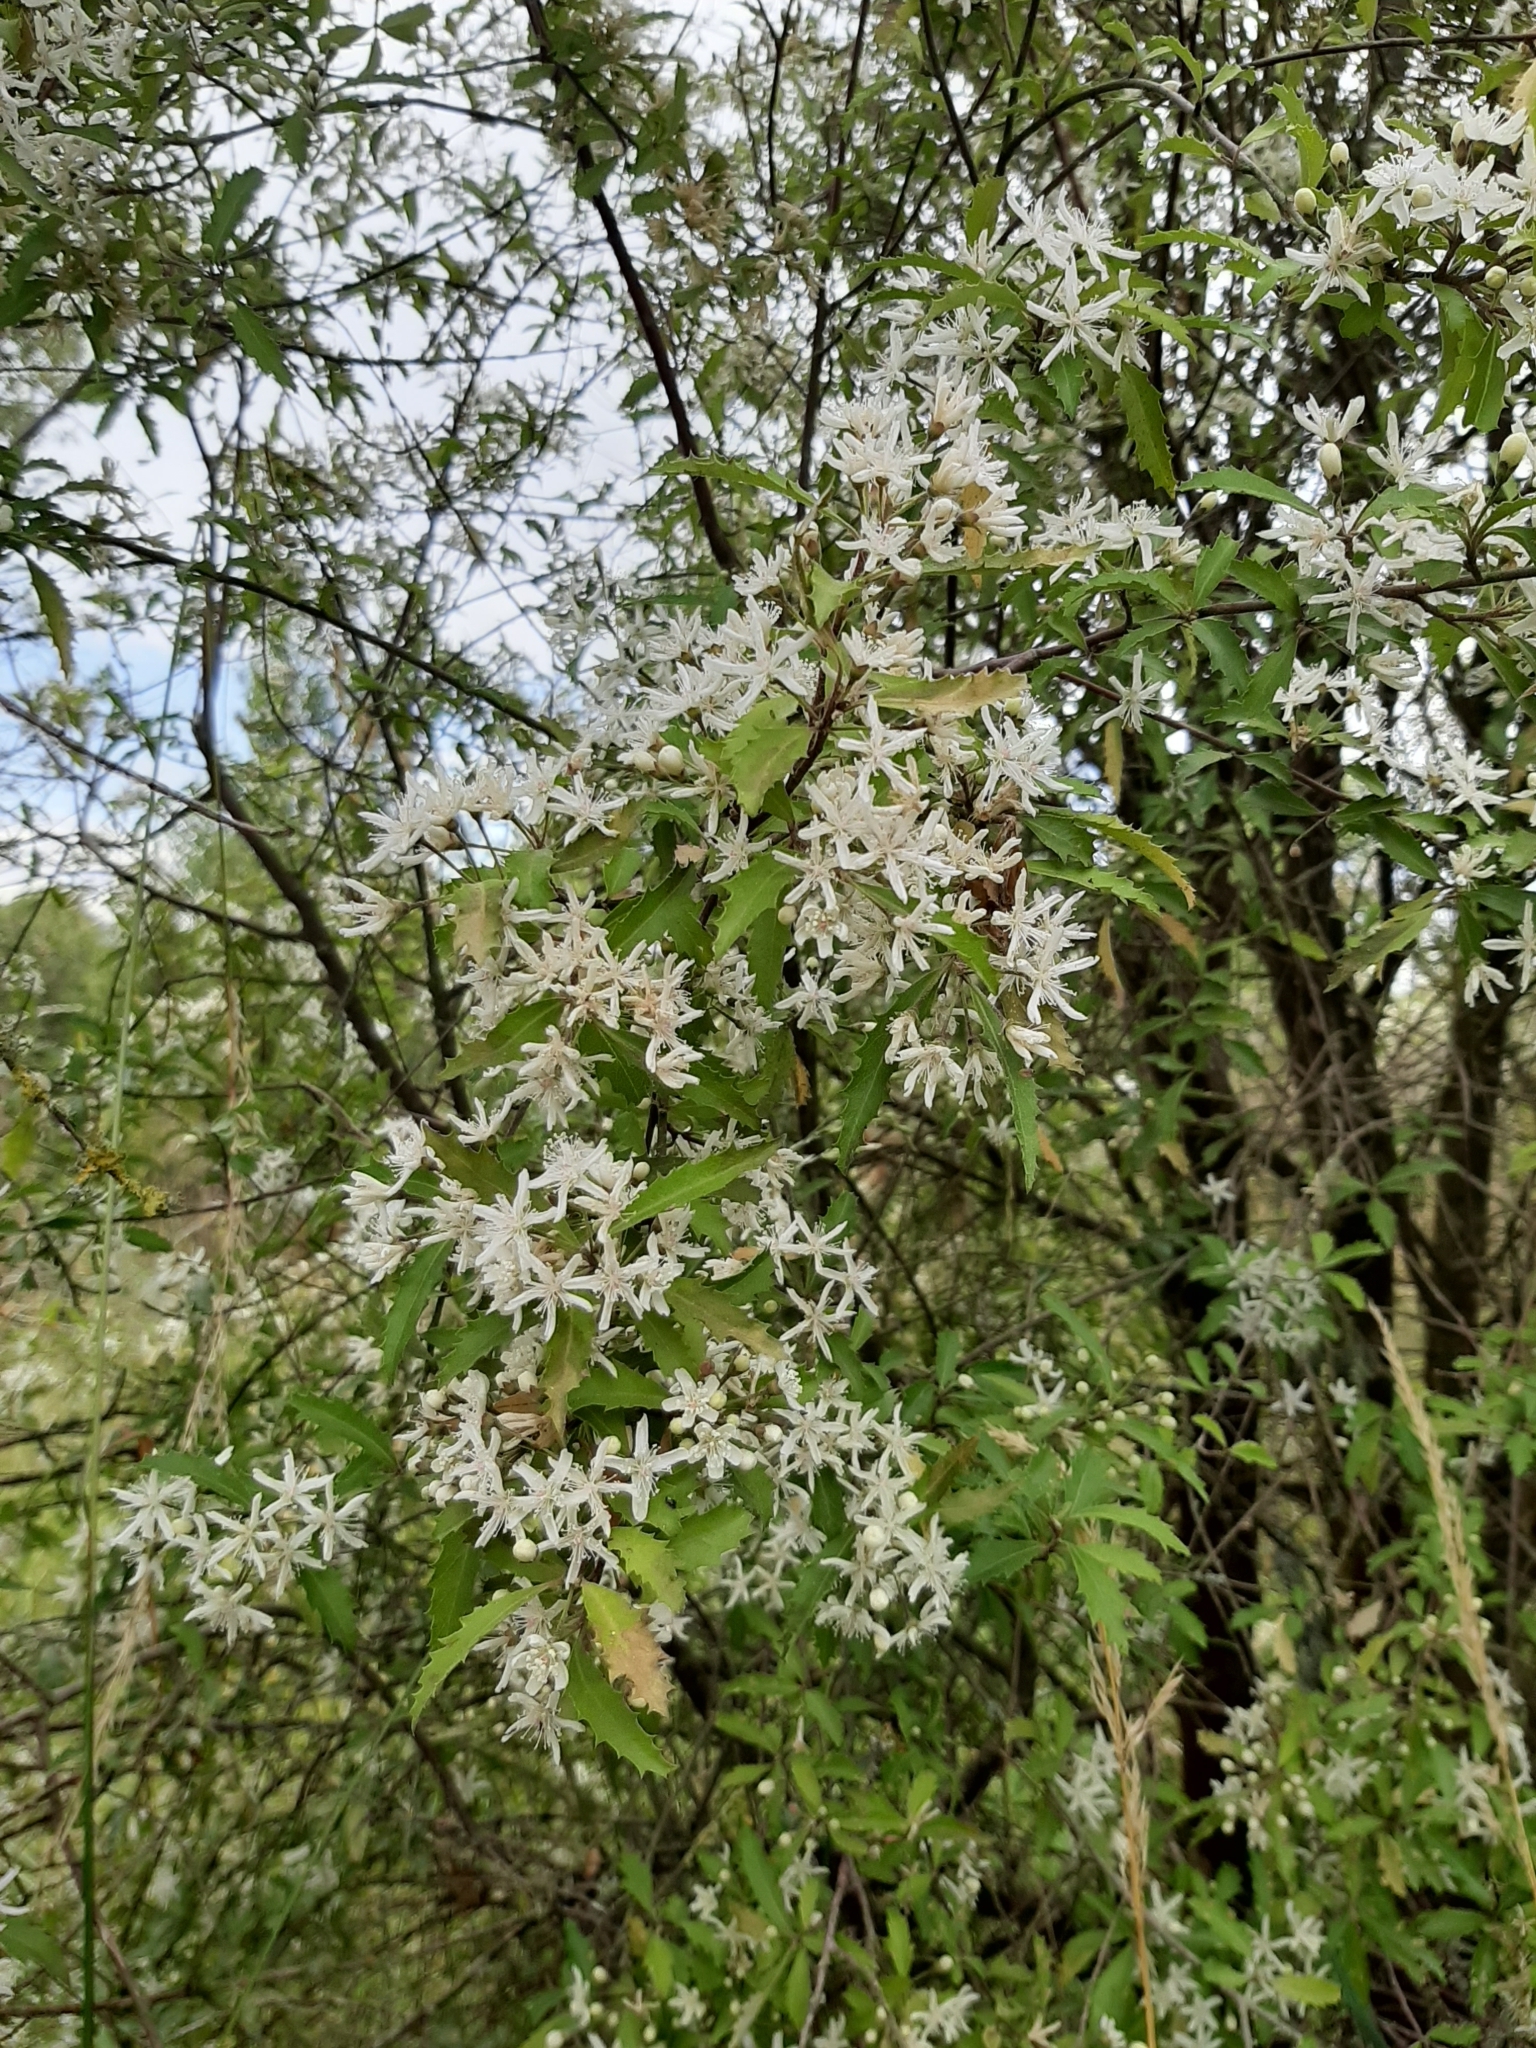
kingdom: Plantae
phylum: Tracheophyta
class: Magnoliopsida
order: Malvales
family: Malvaceae
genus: Hoheria
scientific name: Hoheria angustifolia
